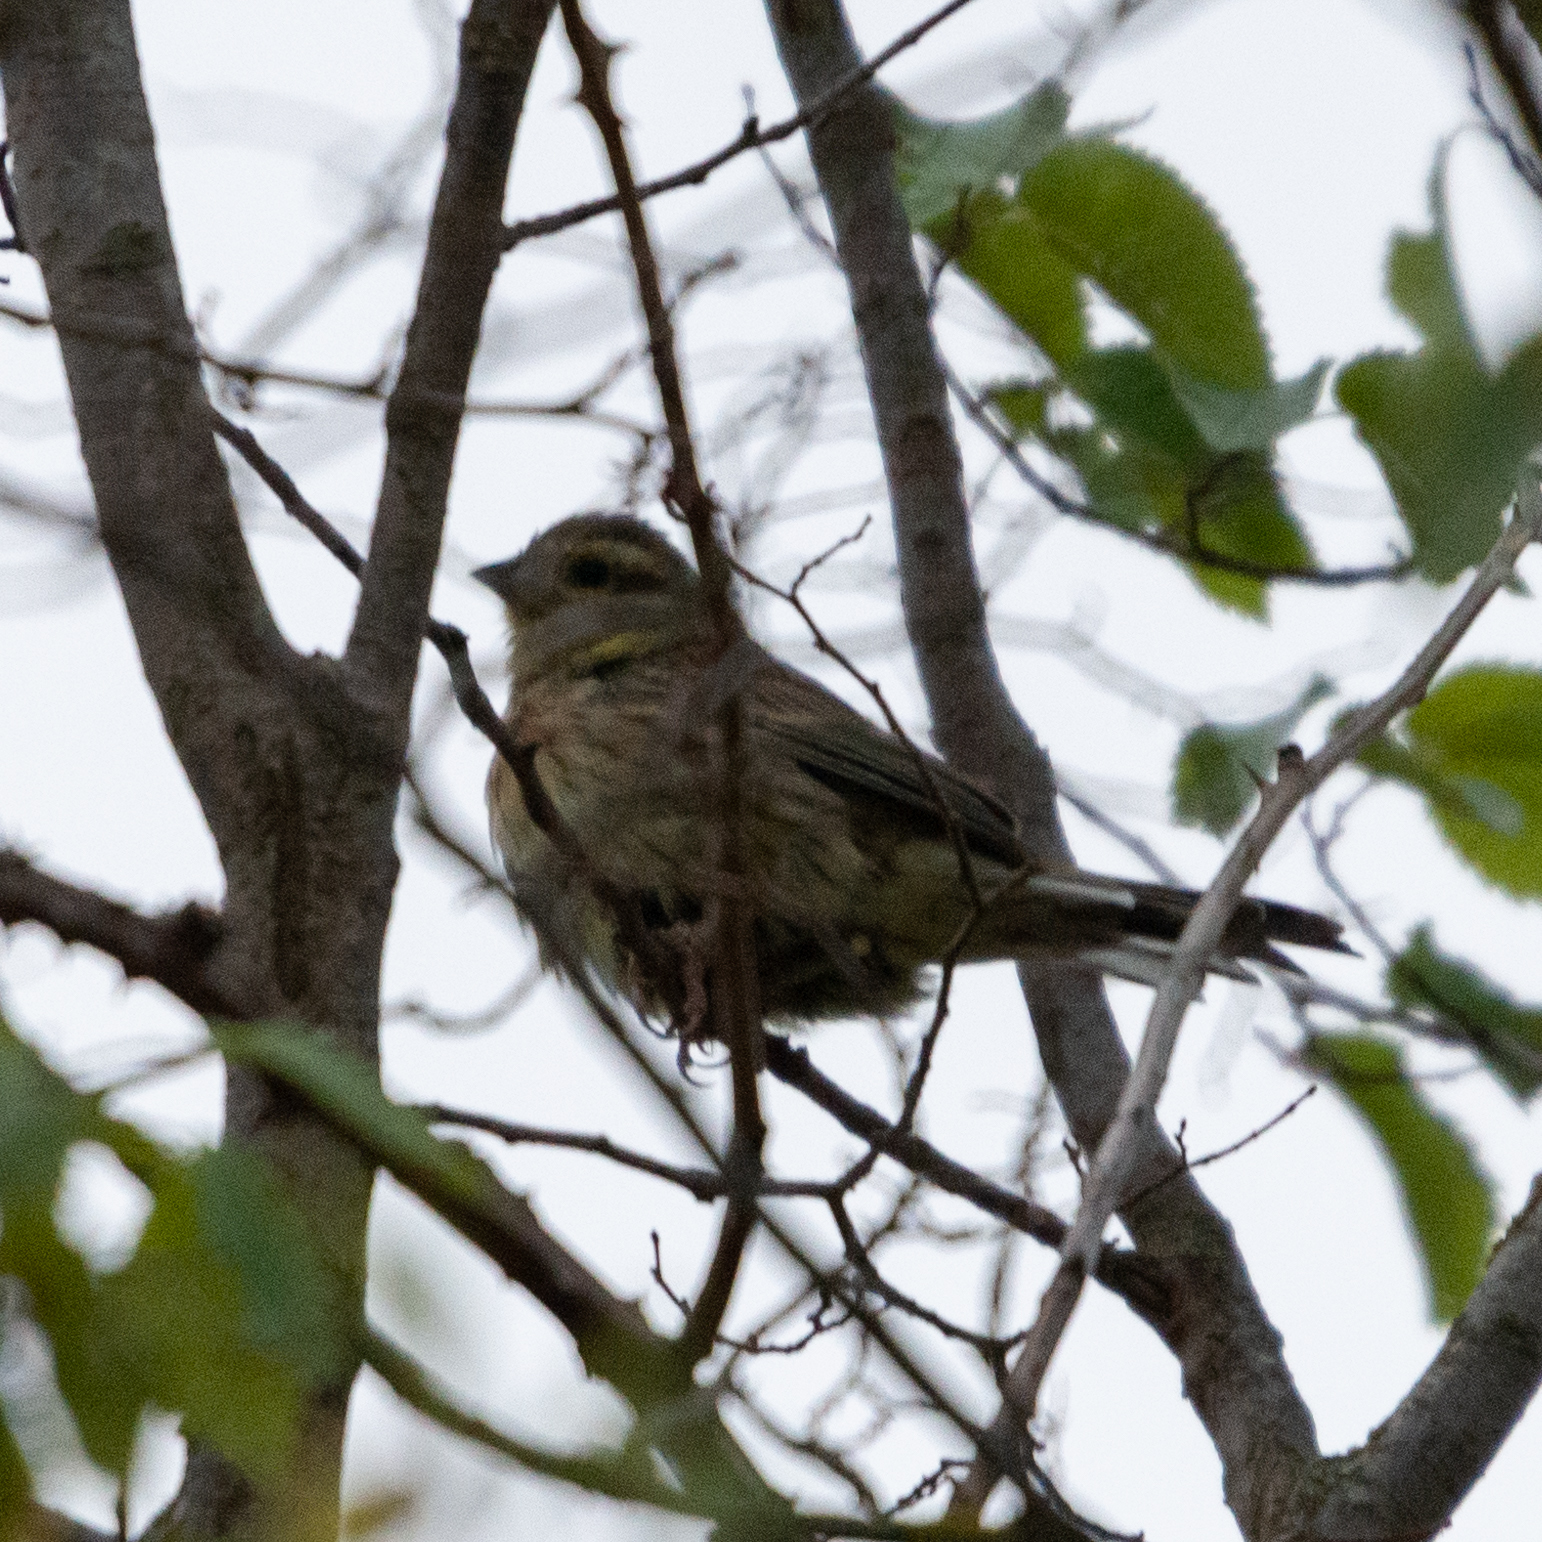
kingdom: Animalia
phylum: Chordata
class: Aves
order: Passeriformes
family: Emberizidae
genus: Emberiza
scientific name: Emberiza cirlus
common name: Cirl bunting
